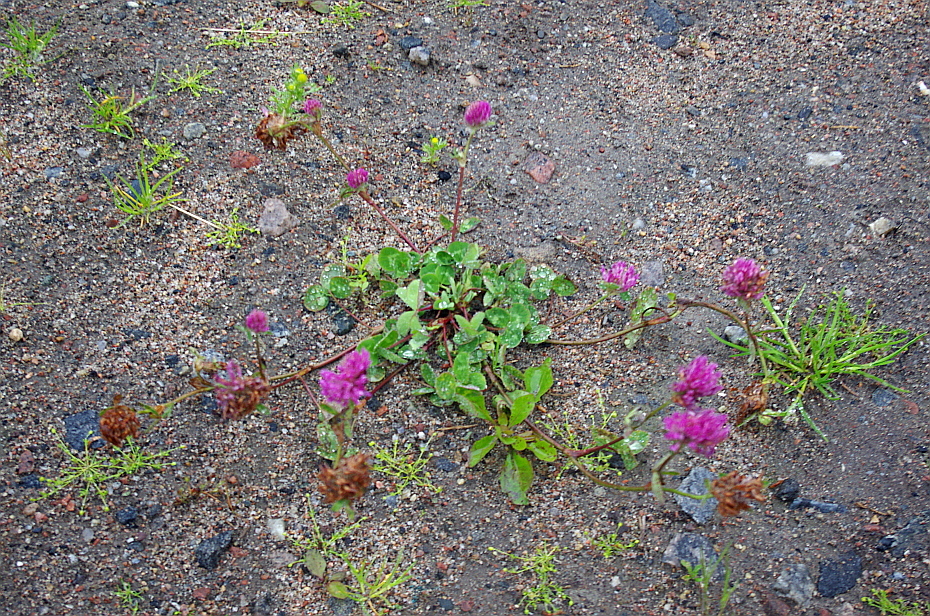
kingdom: Plantae
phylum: Tracheophyta
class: Magnoliopsida
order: Fabales
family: Fabaceae
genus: Trifolium
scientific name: Trifolium pratense
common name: Red clover
